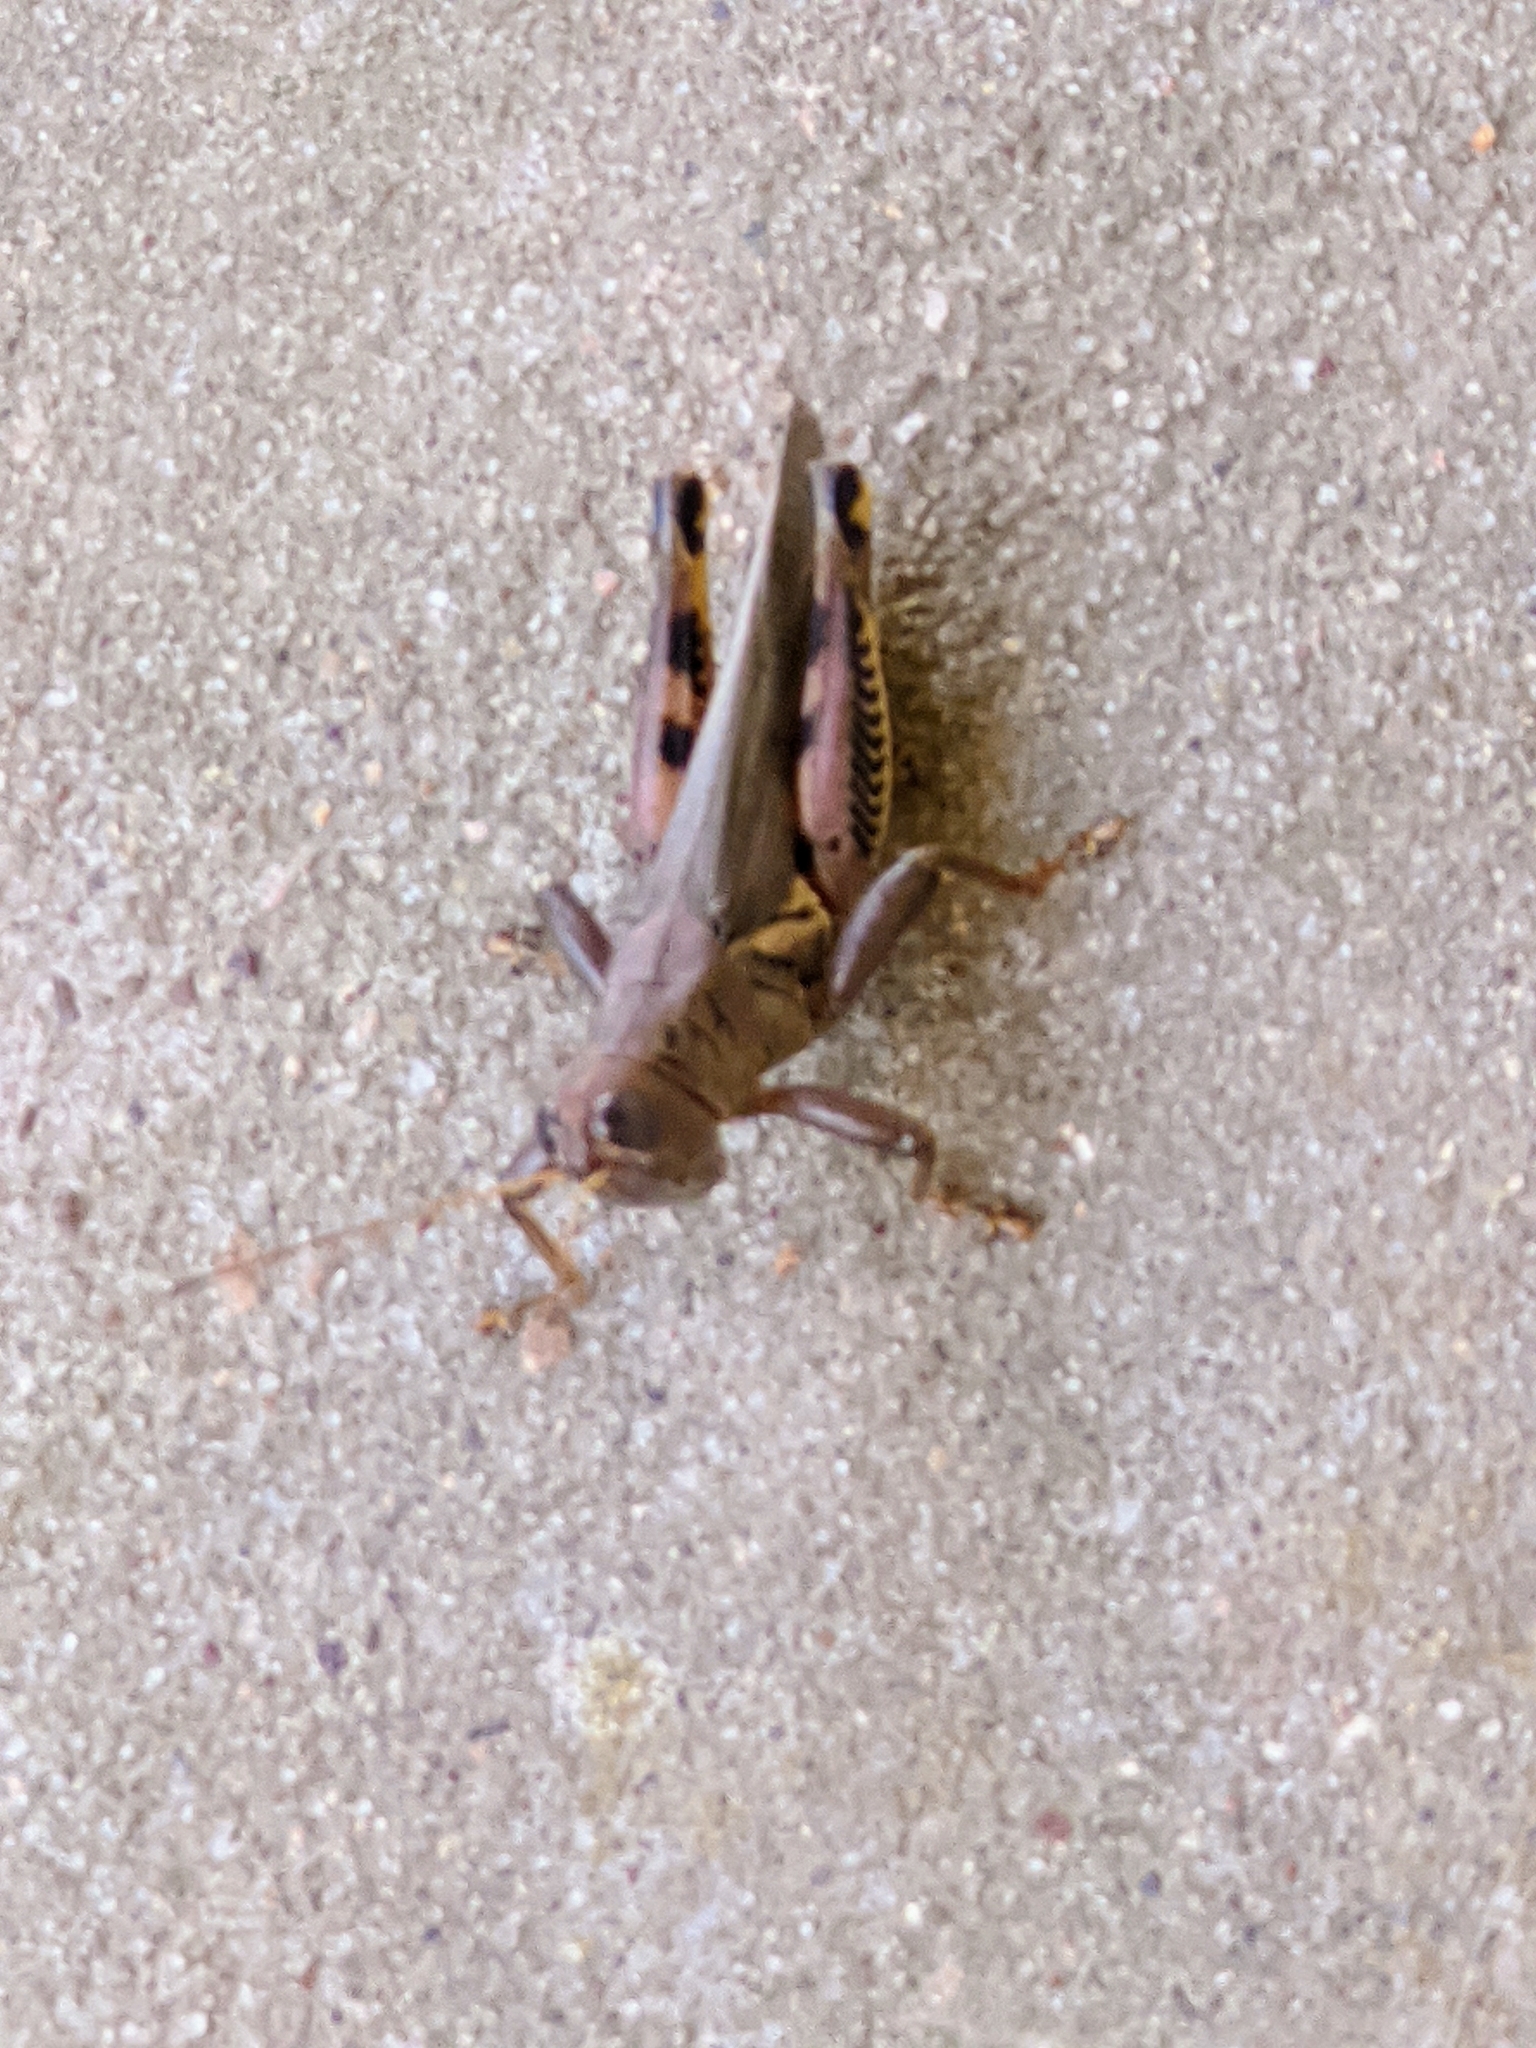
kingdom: Animalia
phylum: Arthropoda
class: Insecta
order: Orthoptera
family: Acrididae
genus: Melanoplus
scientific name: Melanoplus differentialis
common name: Differential grasshopper
